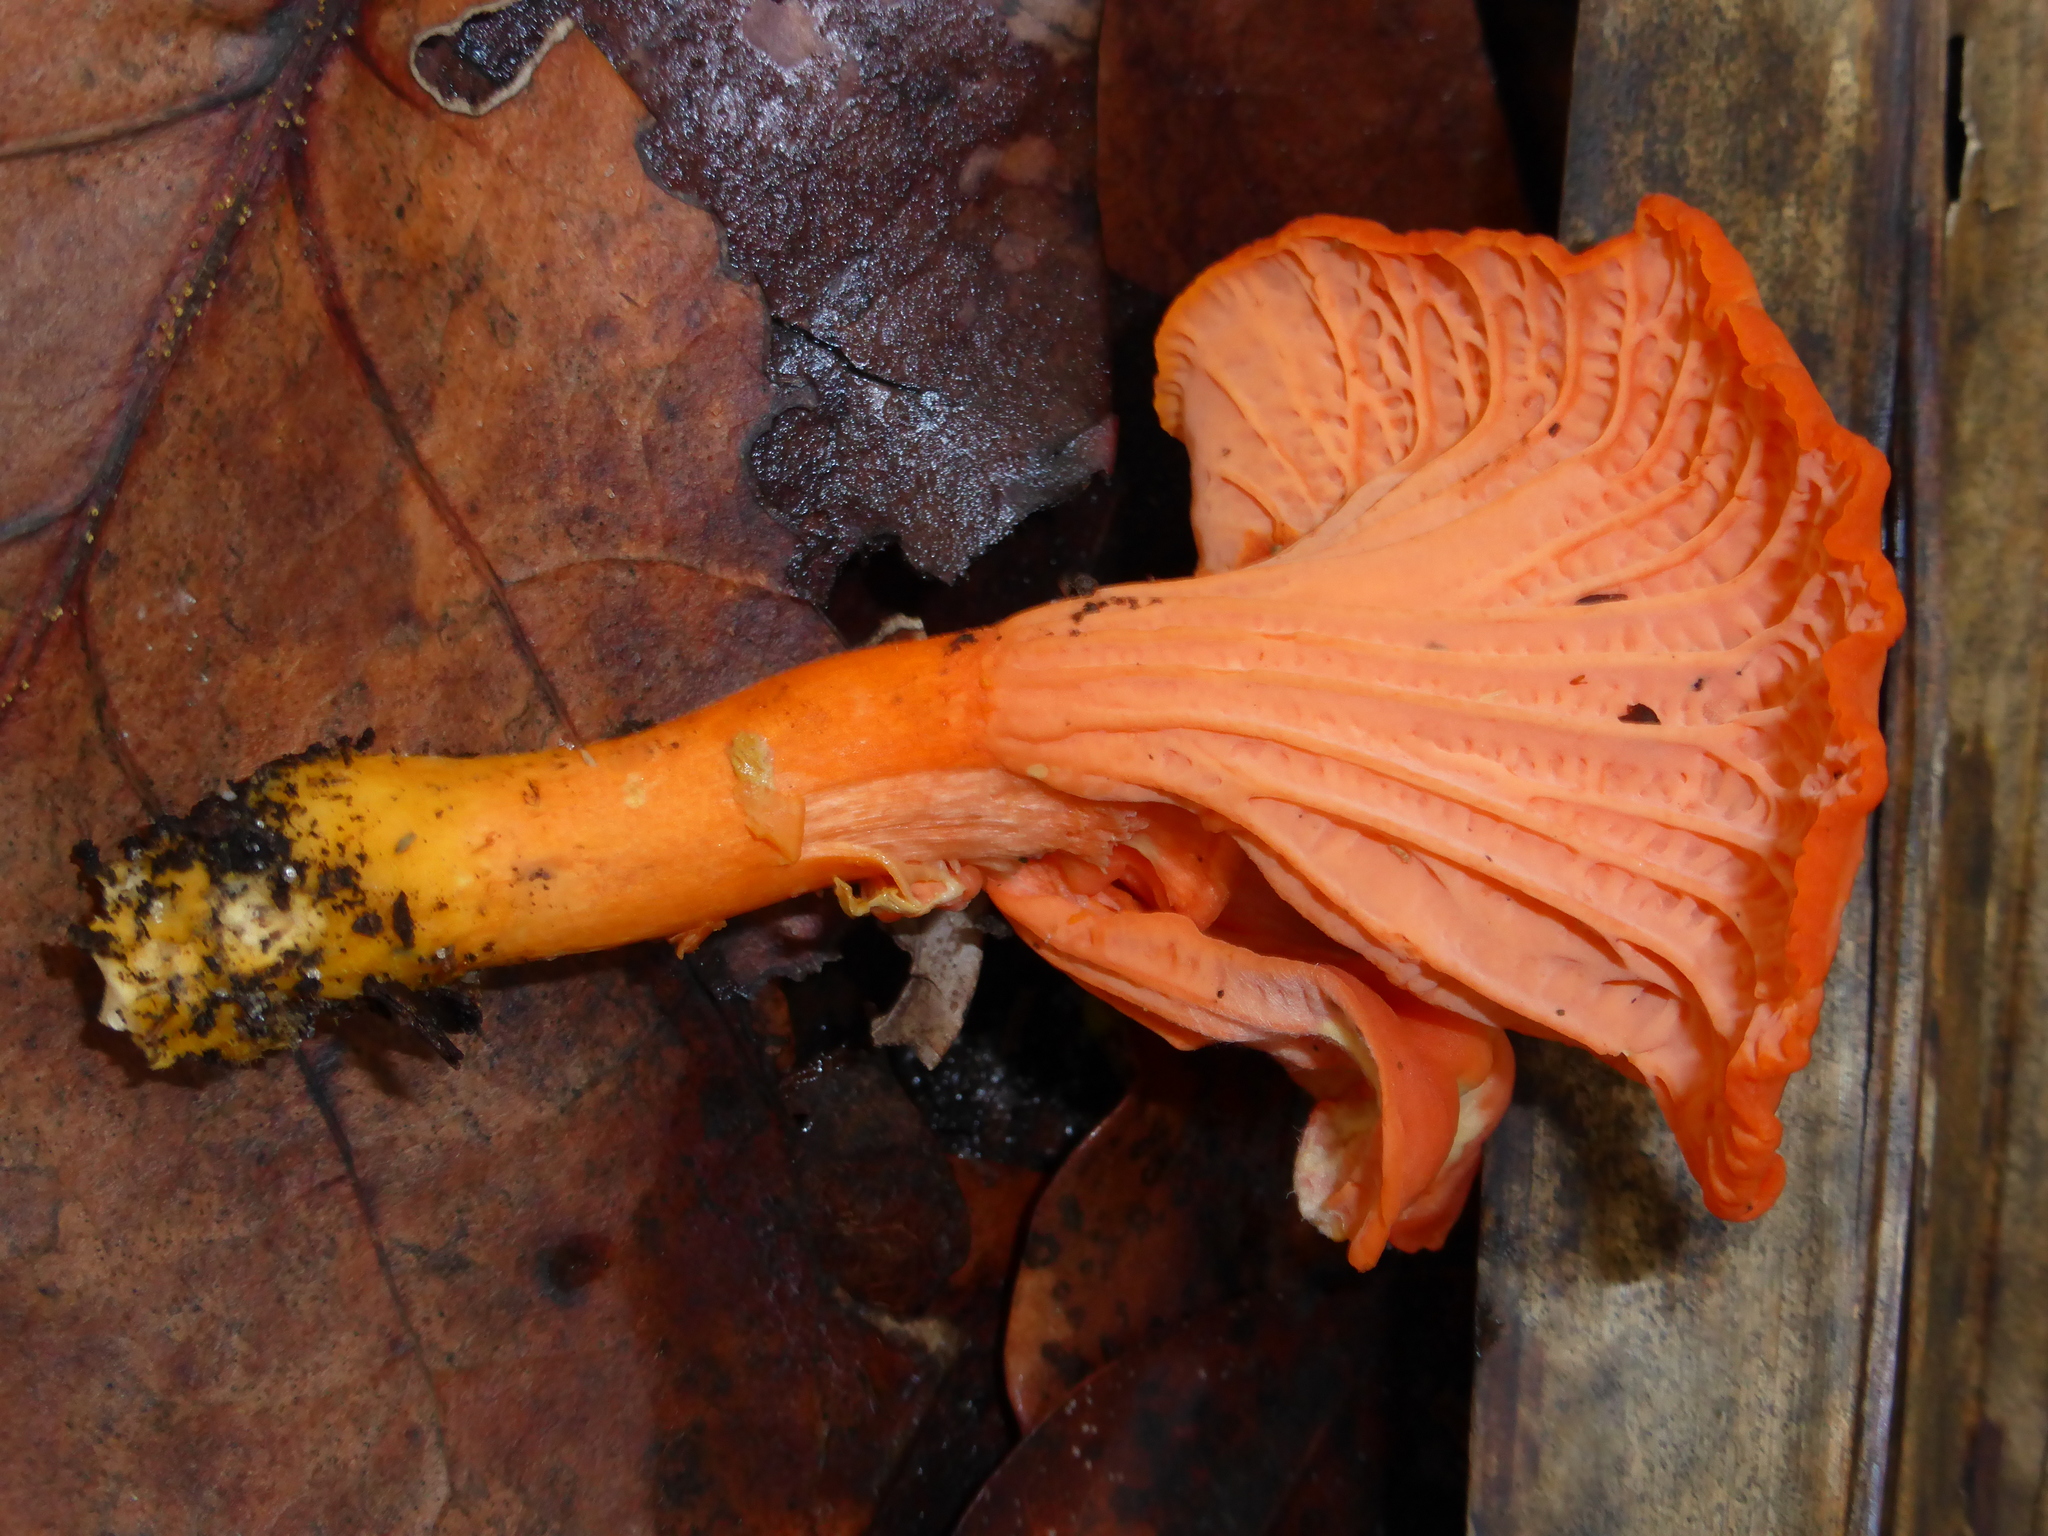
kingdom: Fungi
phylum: Basidiomycota
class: Agaricomycetes
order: Cantharellales
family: Hydnaceae
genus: Cantharellus
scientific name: Cantharellus coccolobae
